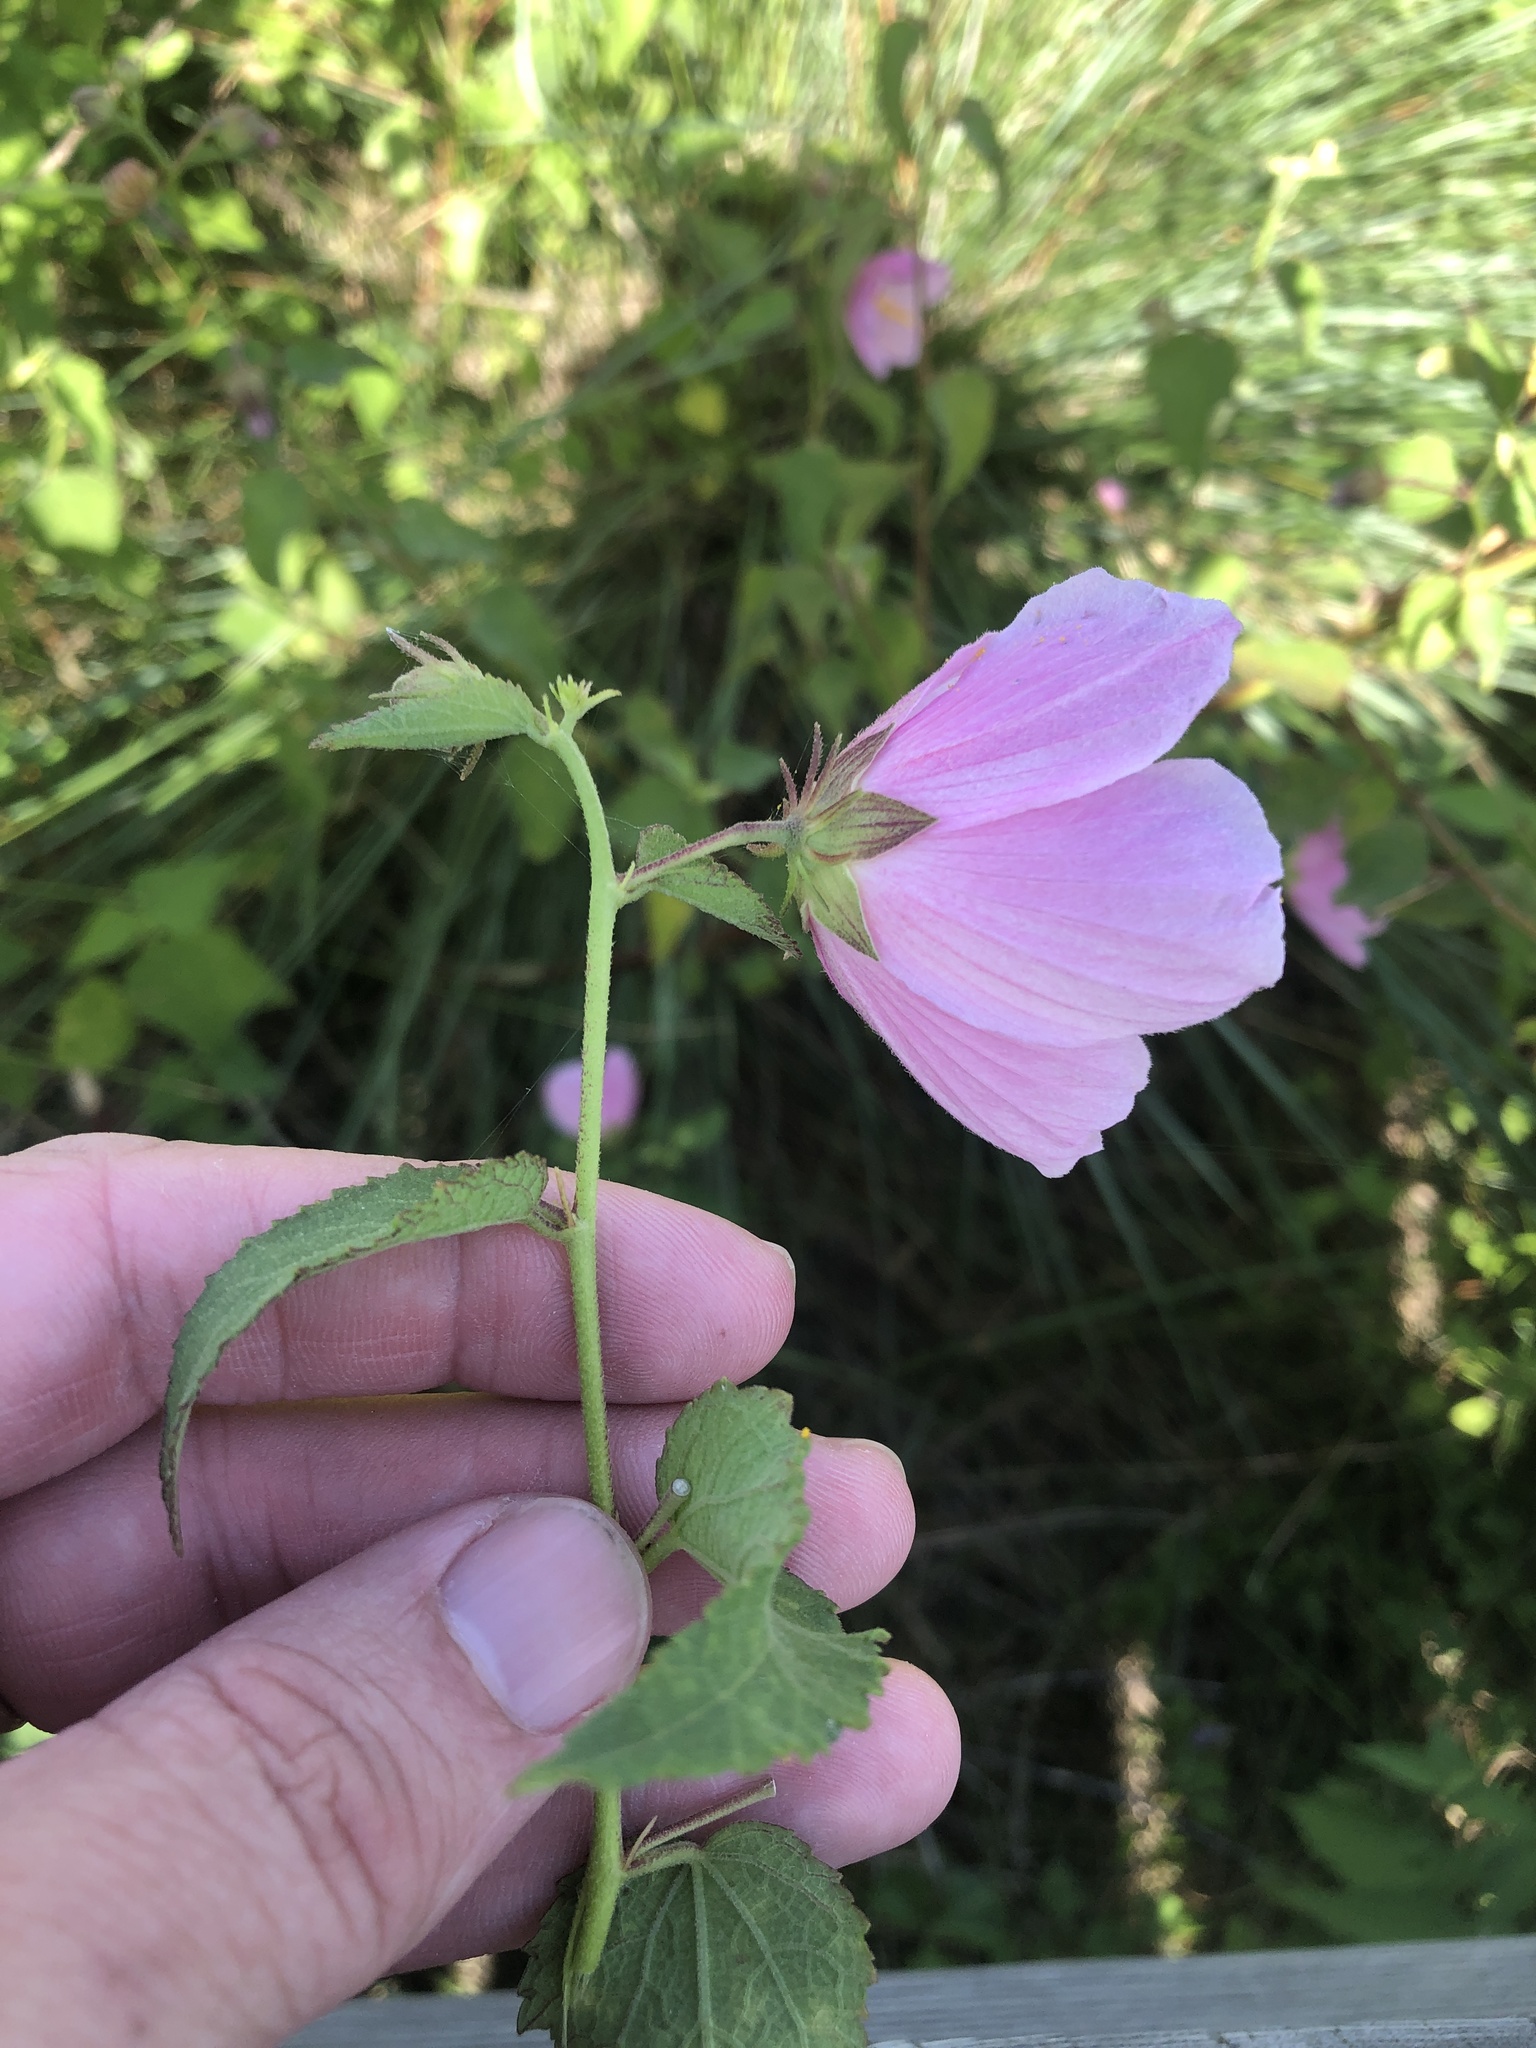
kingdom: Plantae
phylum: Tracheophyta
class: Magnoliopsida
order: Malvales
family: Malvaceae
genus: Kosteletzkya
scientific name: Kosteletzkya pentacarpos
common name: Virginia saltmarsh mallow
